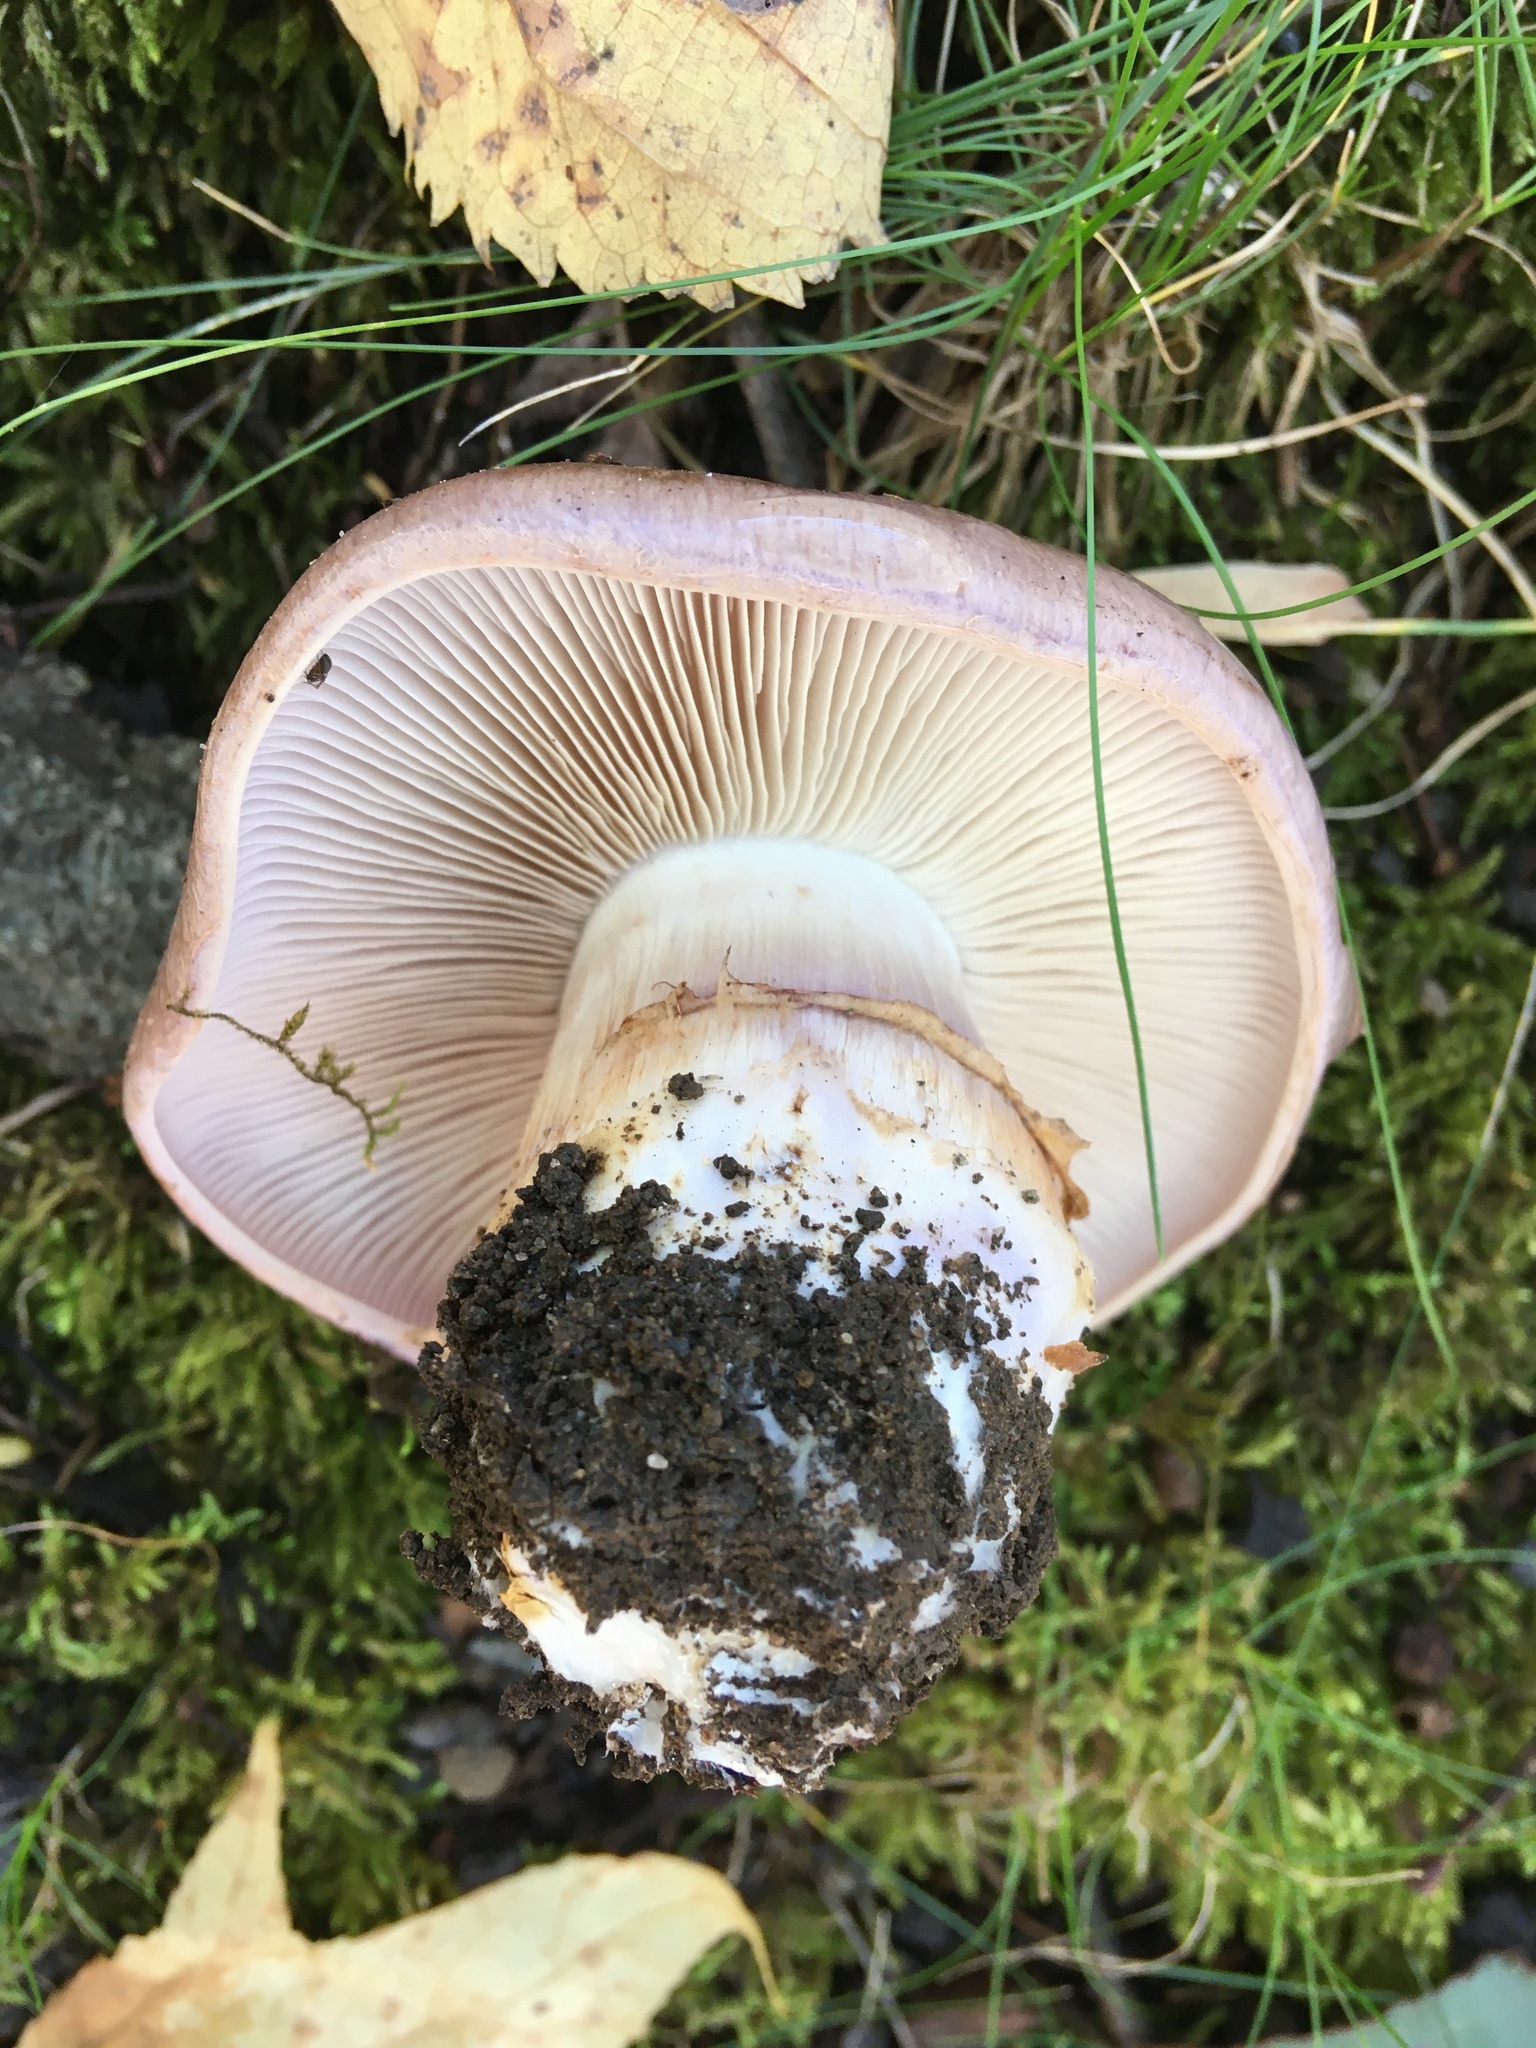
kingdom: Fungi
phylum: Basidiomycota
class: Agaricomycetes
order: Agaricales
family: Cortinariaceae
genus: Phlegmacium
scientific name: Phlegmacium flavescentipes
